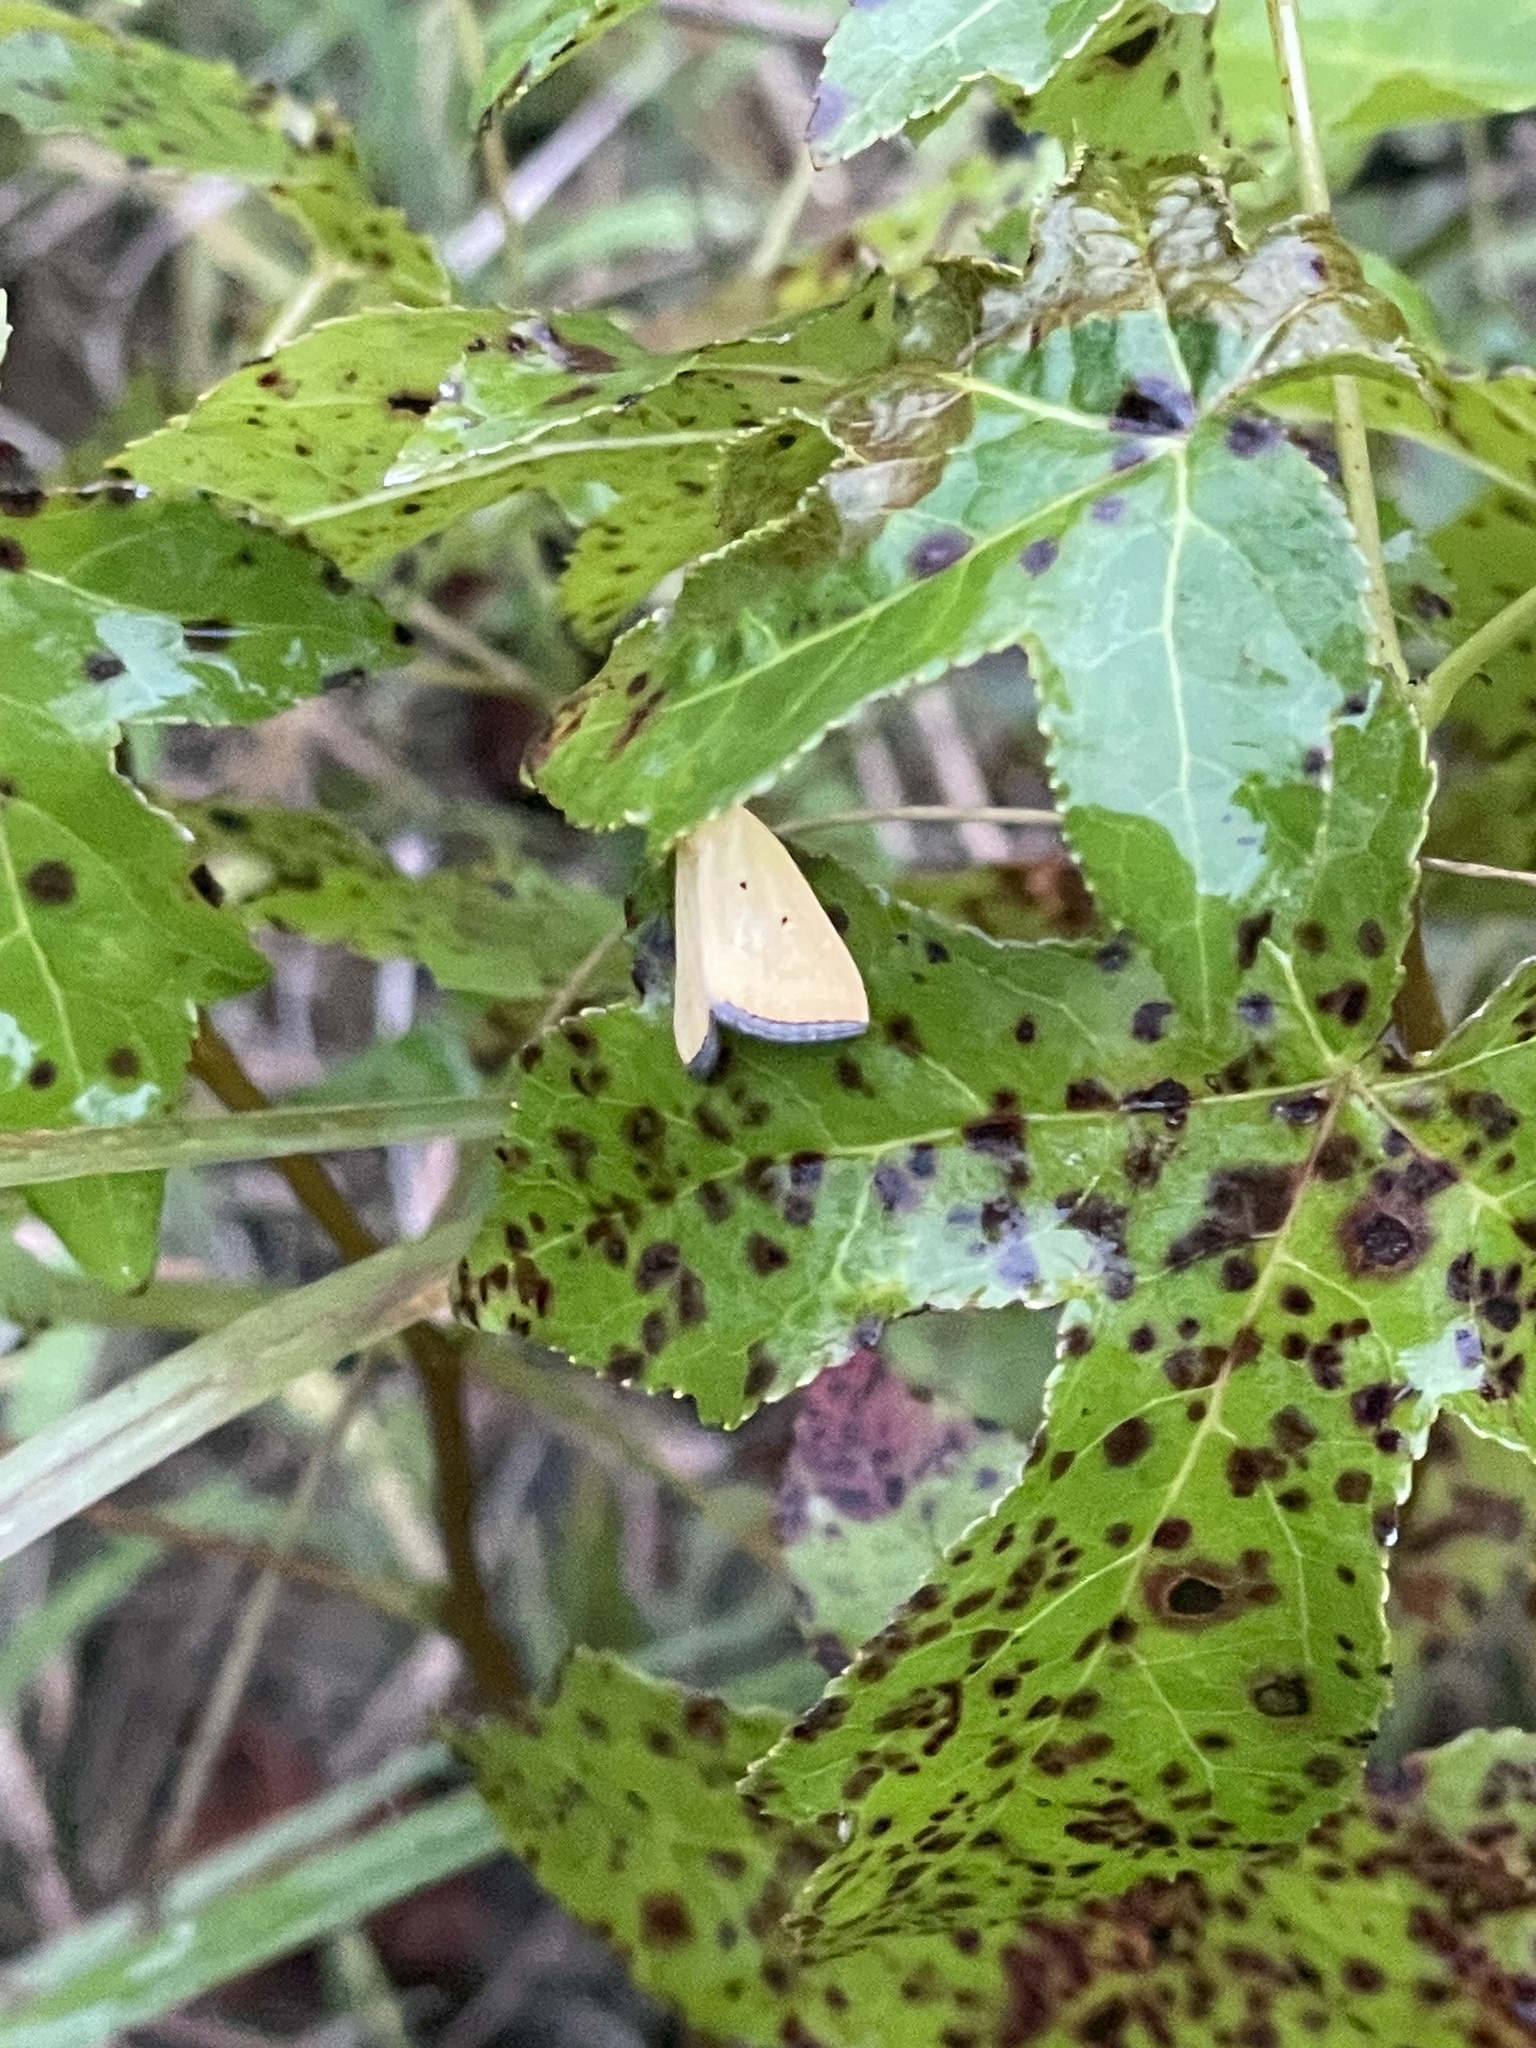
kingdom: Animalia
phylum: Arthropoda
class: Insecta
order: Lepidoptera
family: Noctuidae
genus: Marimatha
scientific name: Marimatha nigrofimbria
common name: Black-bordered lemon moth
